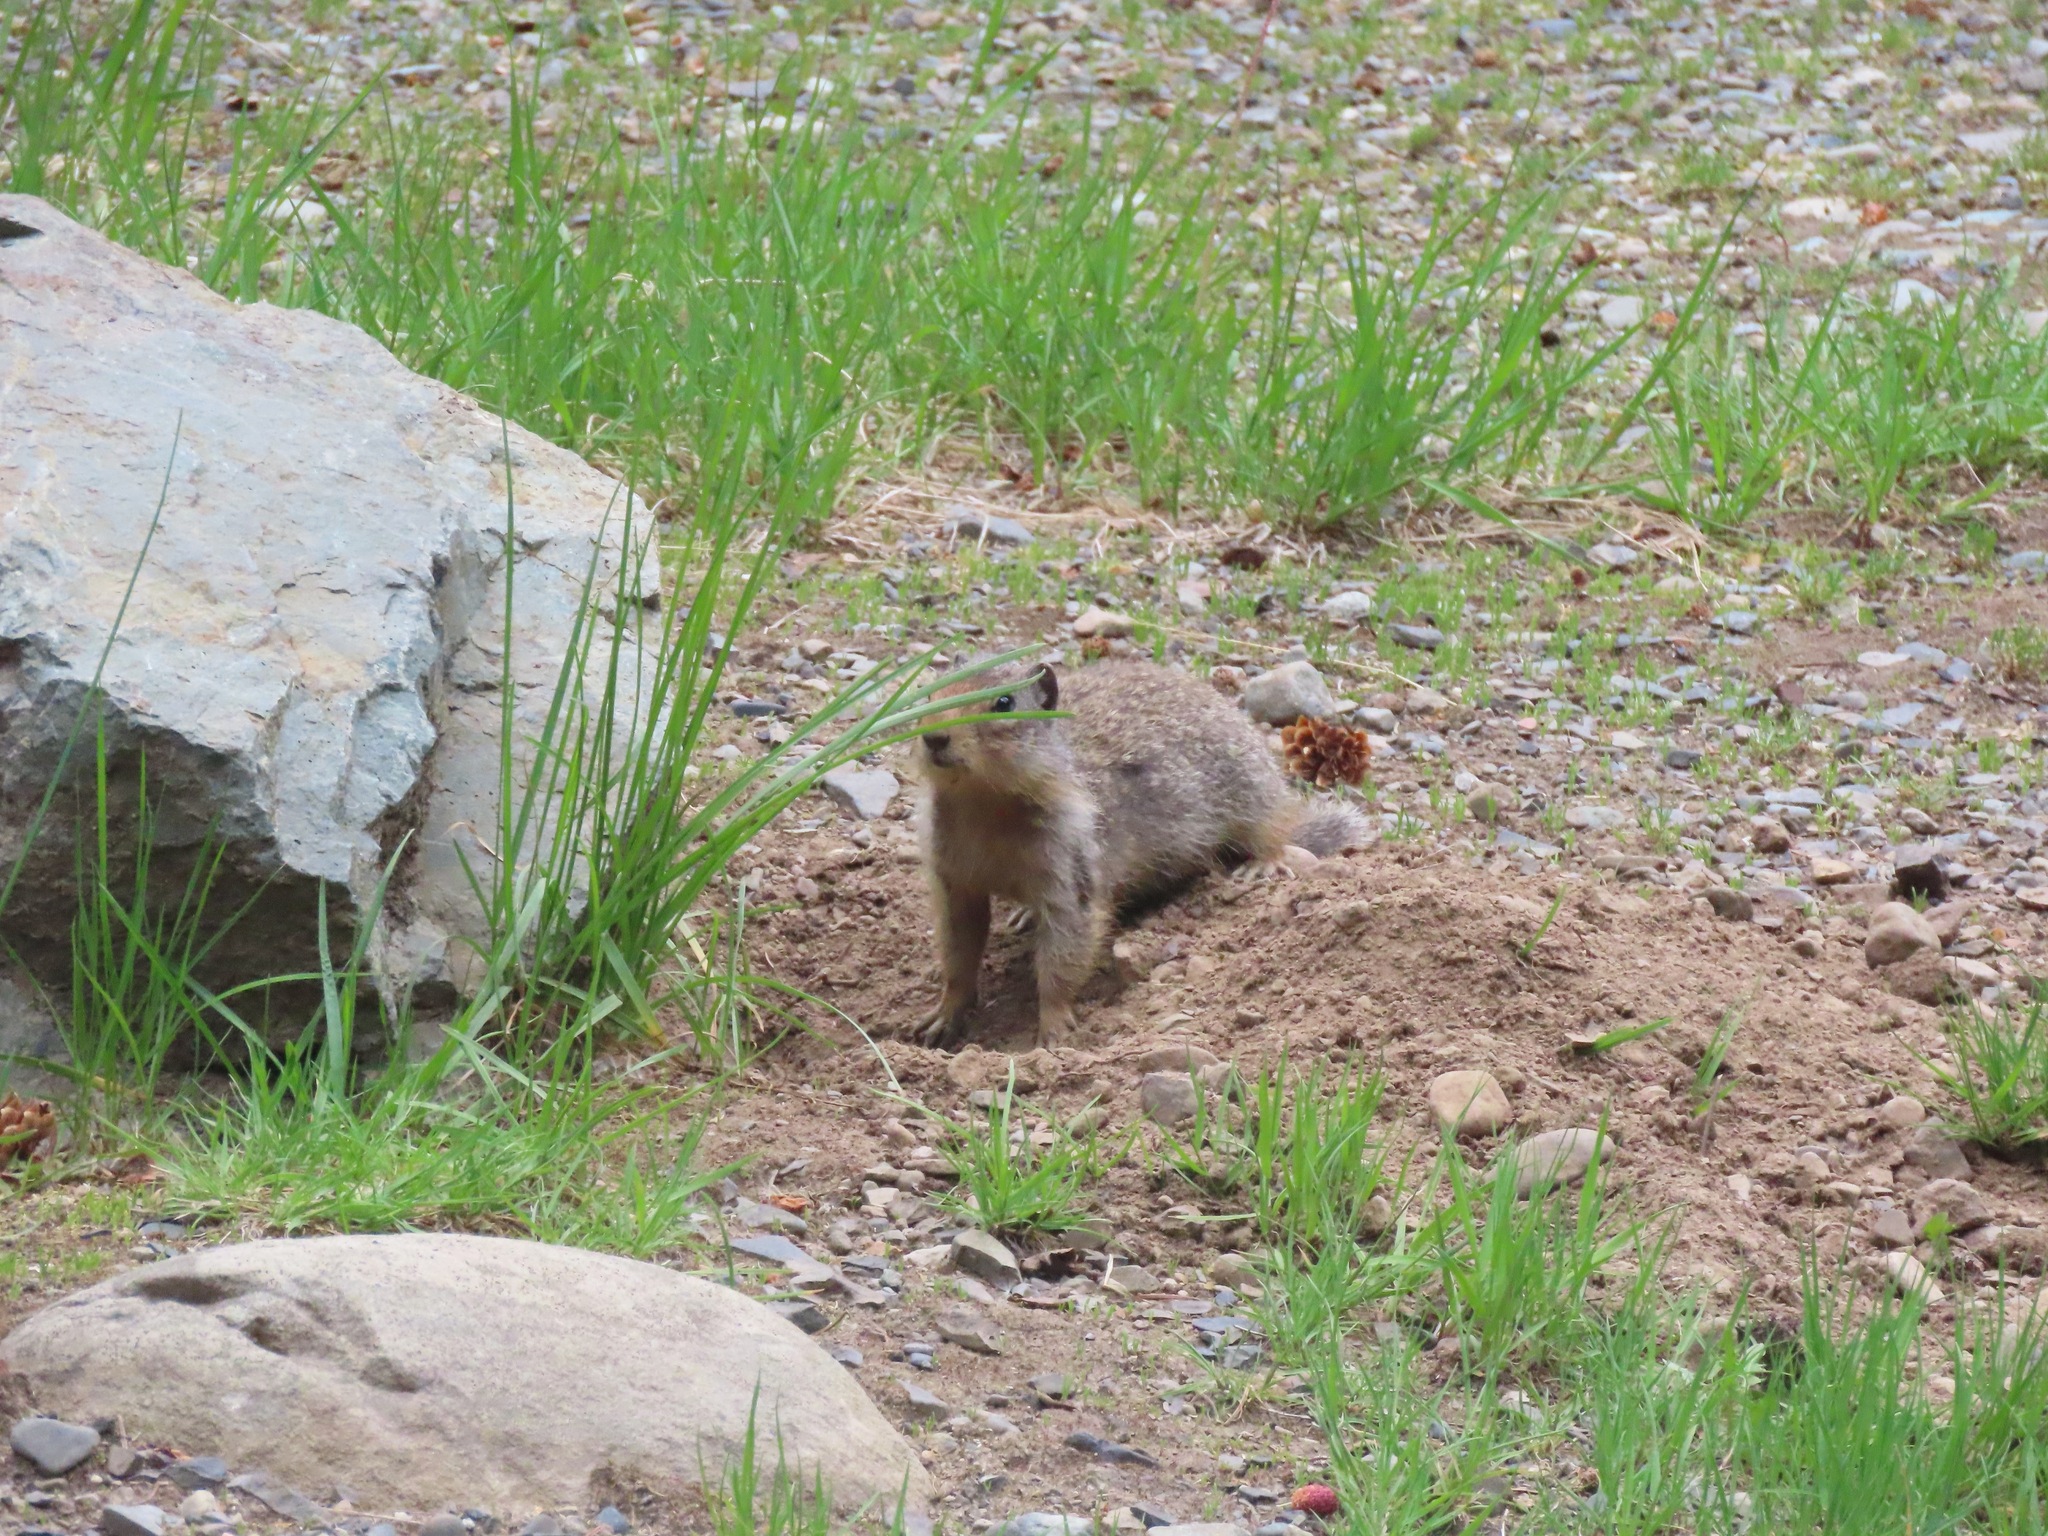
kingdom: Animalia
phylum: Chordata
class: Mammalia
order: Rodentia
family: Sciuridae
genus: Urocitellus
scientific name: Urocitellus columbianus
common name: Columbian ground squirrel
